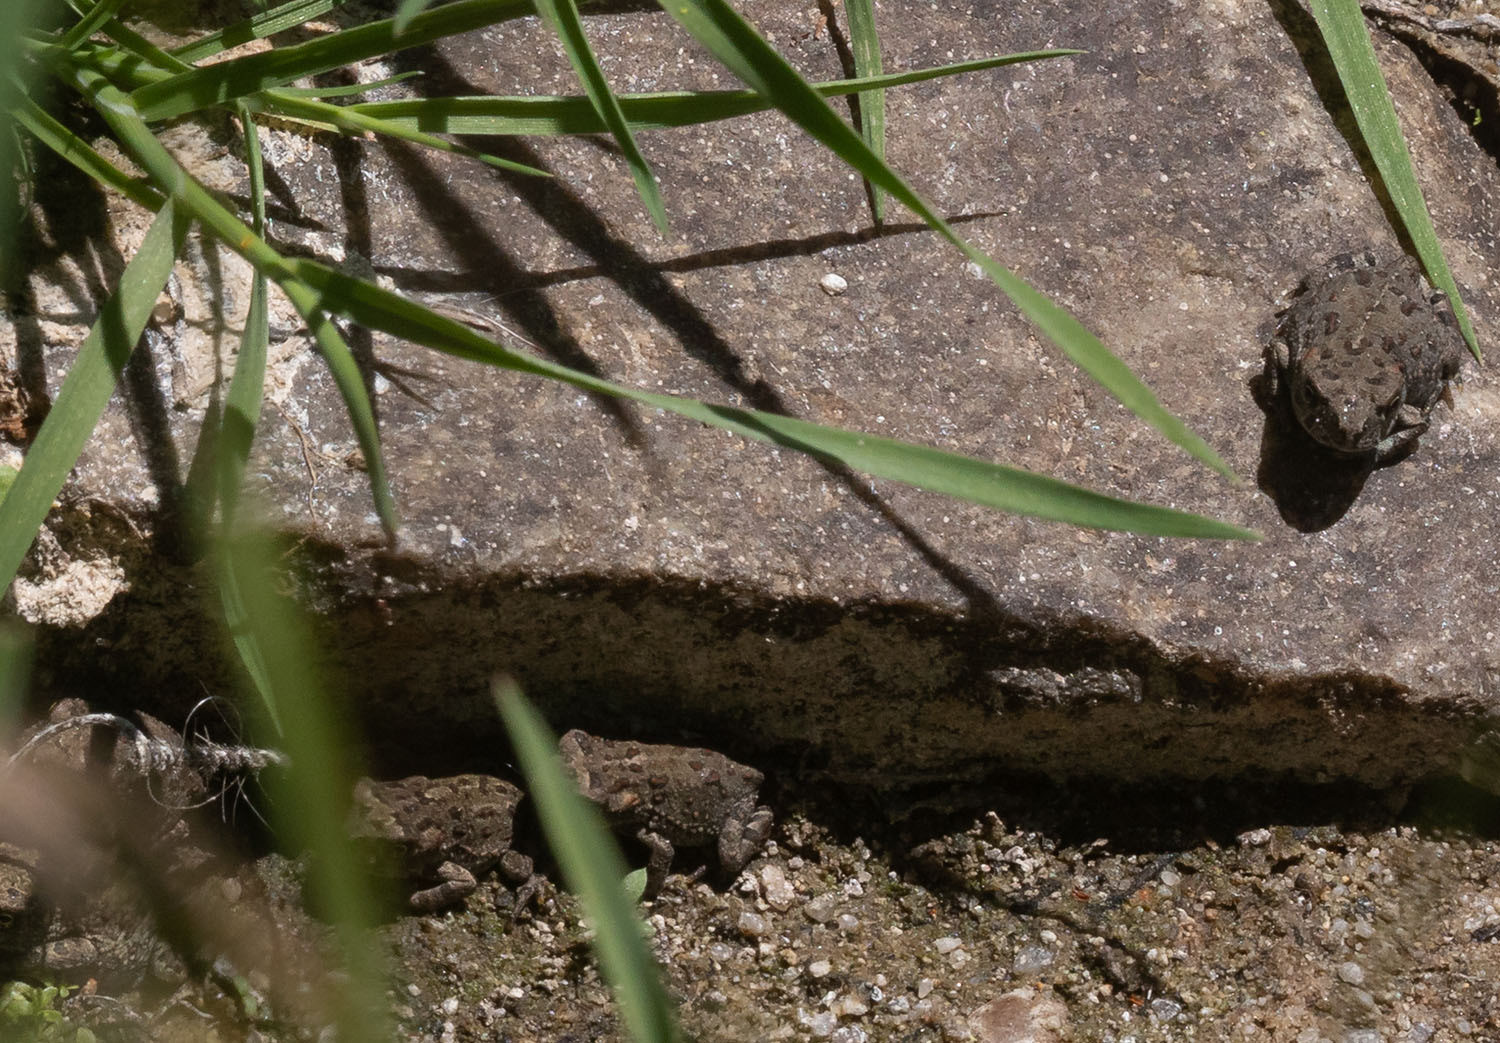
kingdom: Animalia
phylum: Chordata
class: Amphibia
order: Anura
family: Bufonidae
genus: Anaxyrus
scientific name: Anaxyrus boreas
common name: Western toad
